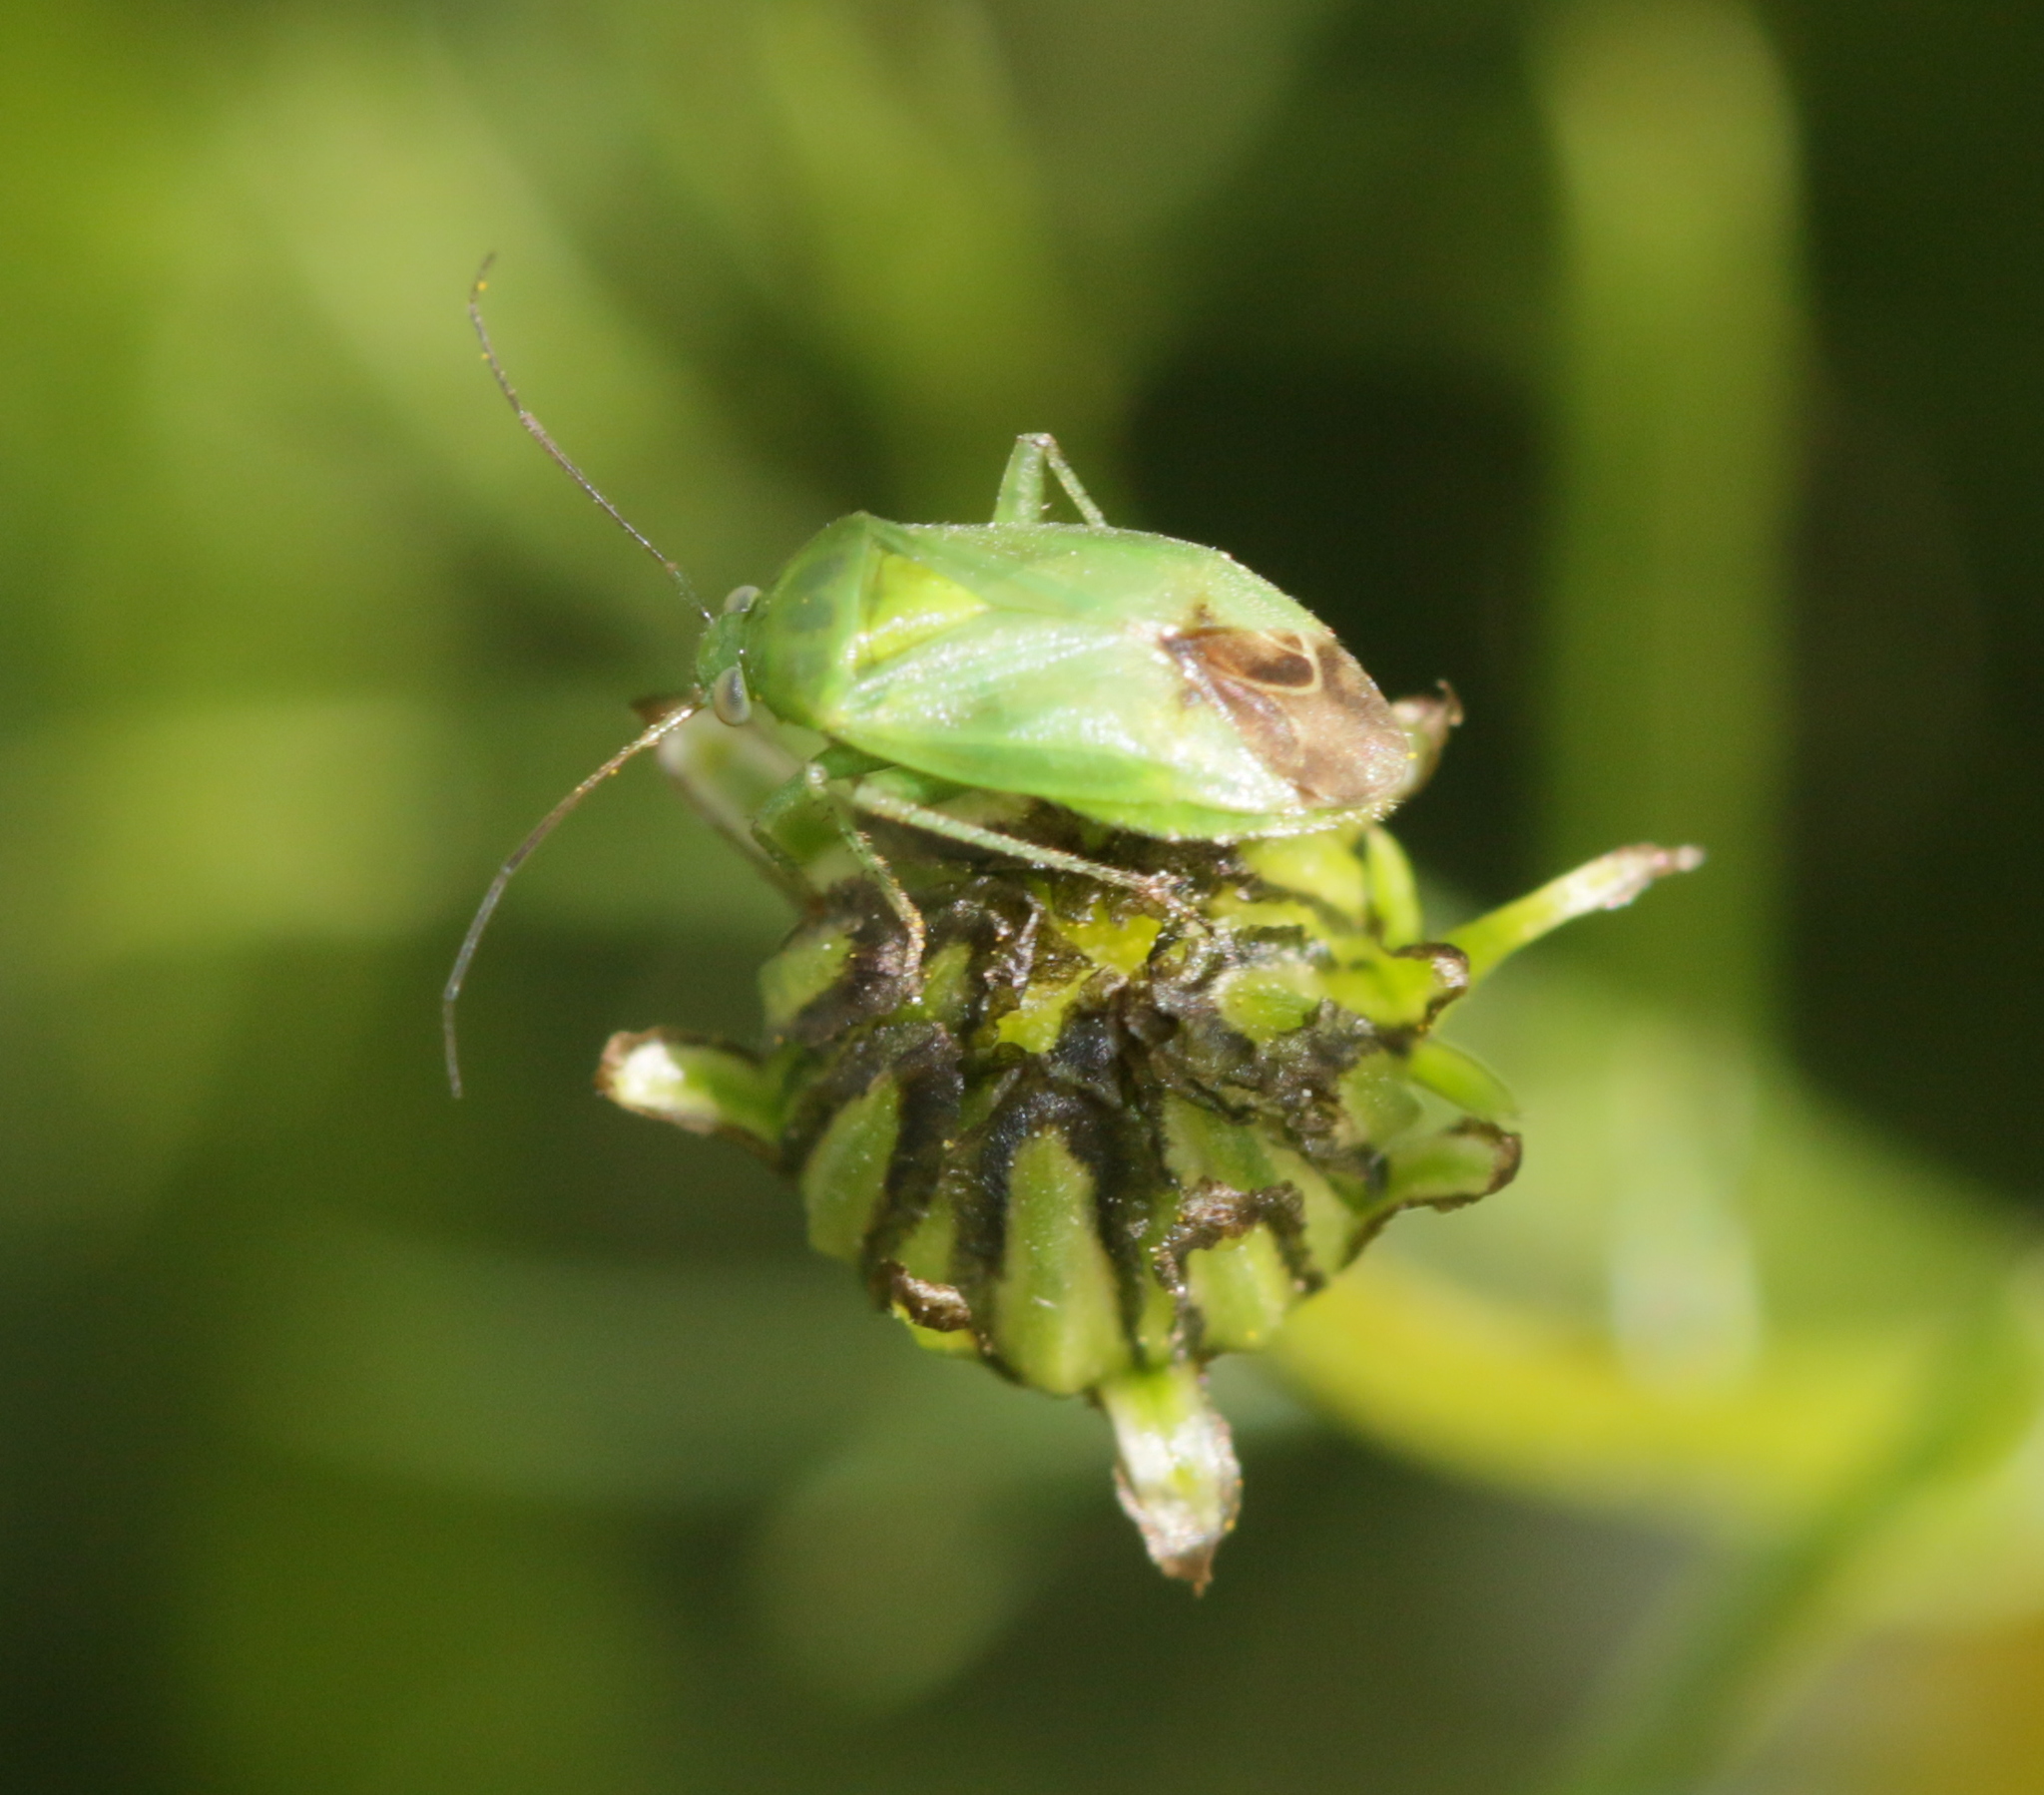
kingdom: Animalia
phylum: Arthropoda
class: Insecta
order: Hemiptera
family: Miridae
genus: Apolygus
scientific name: Apolygus lucorum
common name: Plant bug
